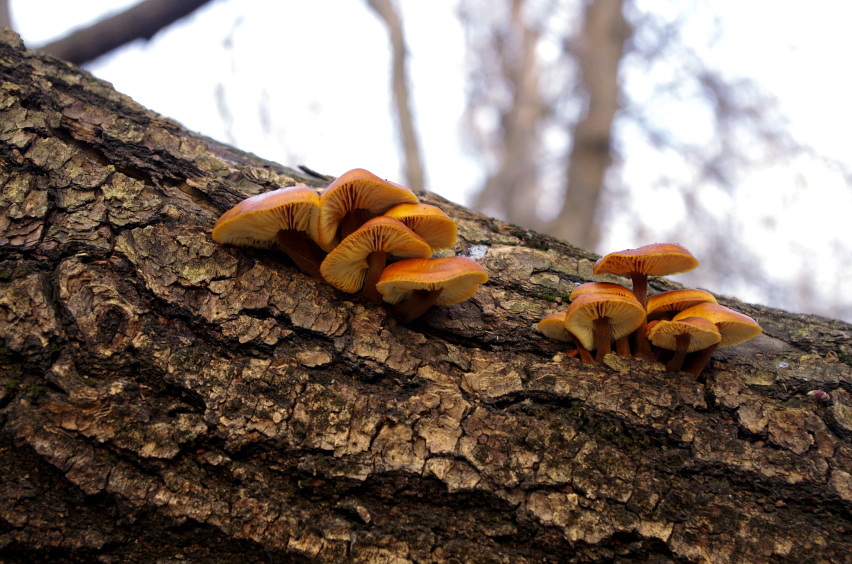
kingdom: Fungi
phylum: Basidiomycota
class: Agaricomycetes
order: Agaricales
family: Physalacriaceae
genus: Flammulina
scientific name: Flammulina
